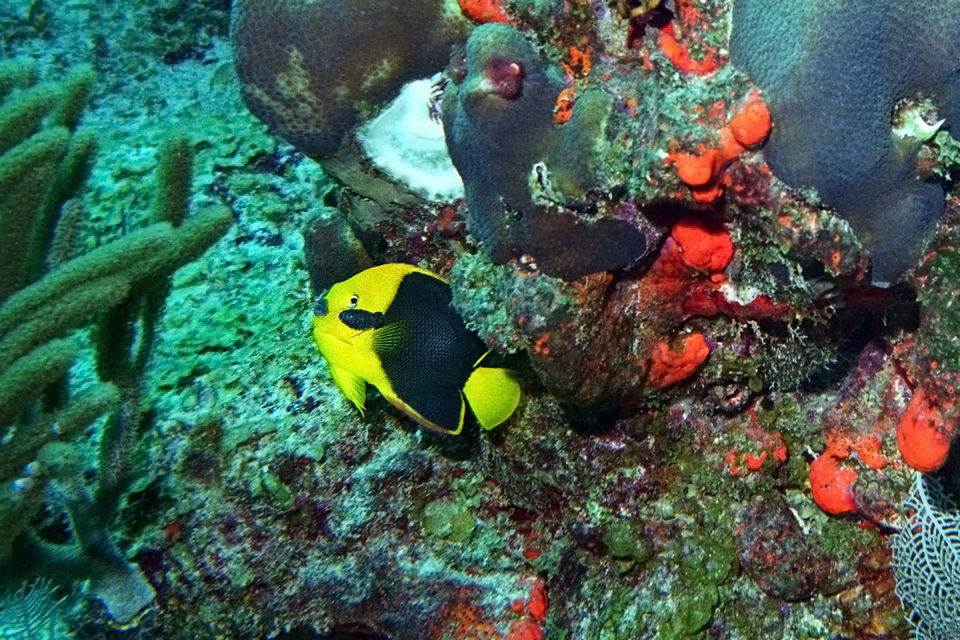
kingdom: Animalia
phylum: Chordata
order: Perciformes
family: Pomacanthidae
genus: Holacanthus
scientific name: Holacanthus tricolor
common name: Rock beauty
